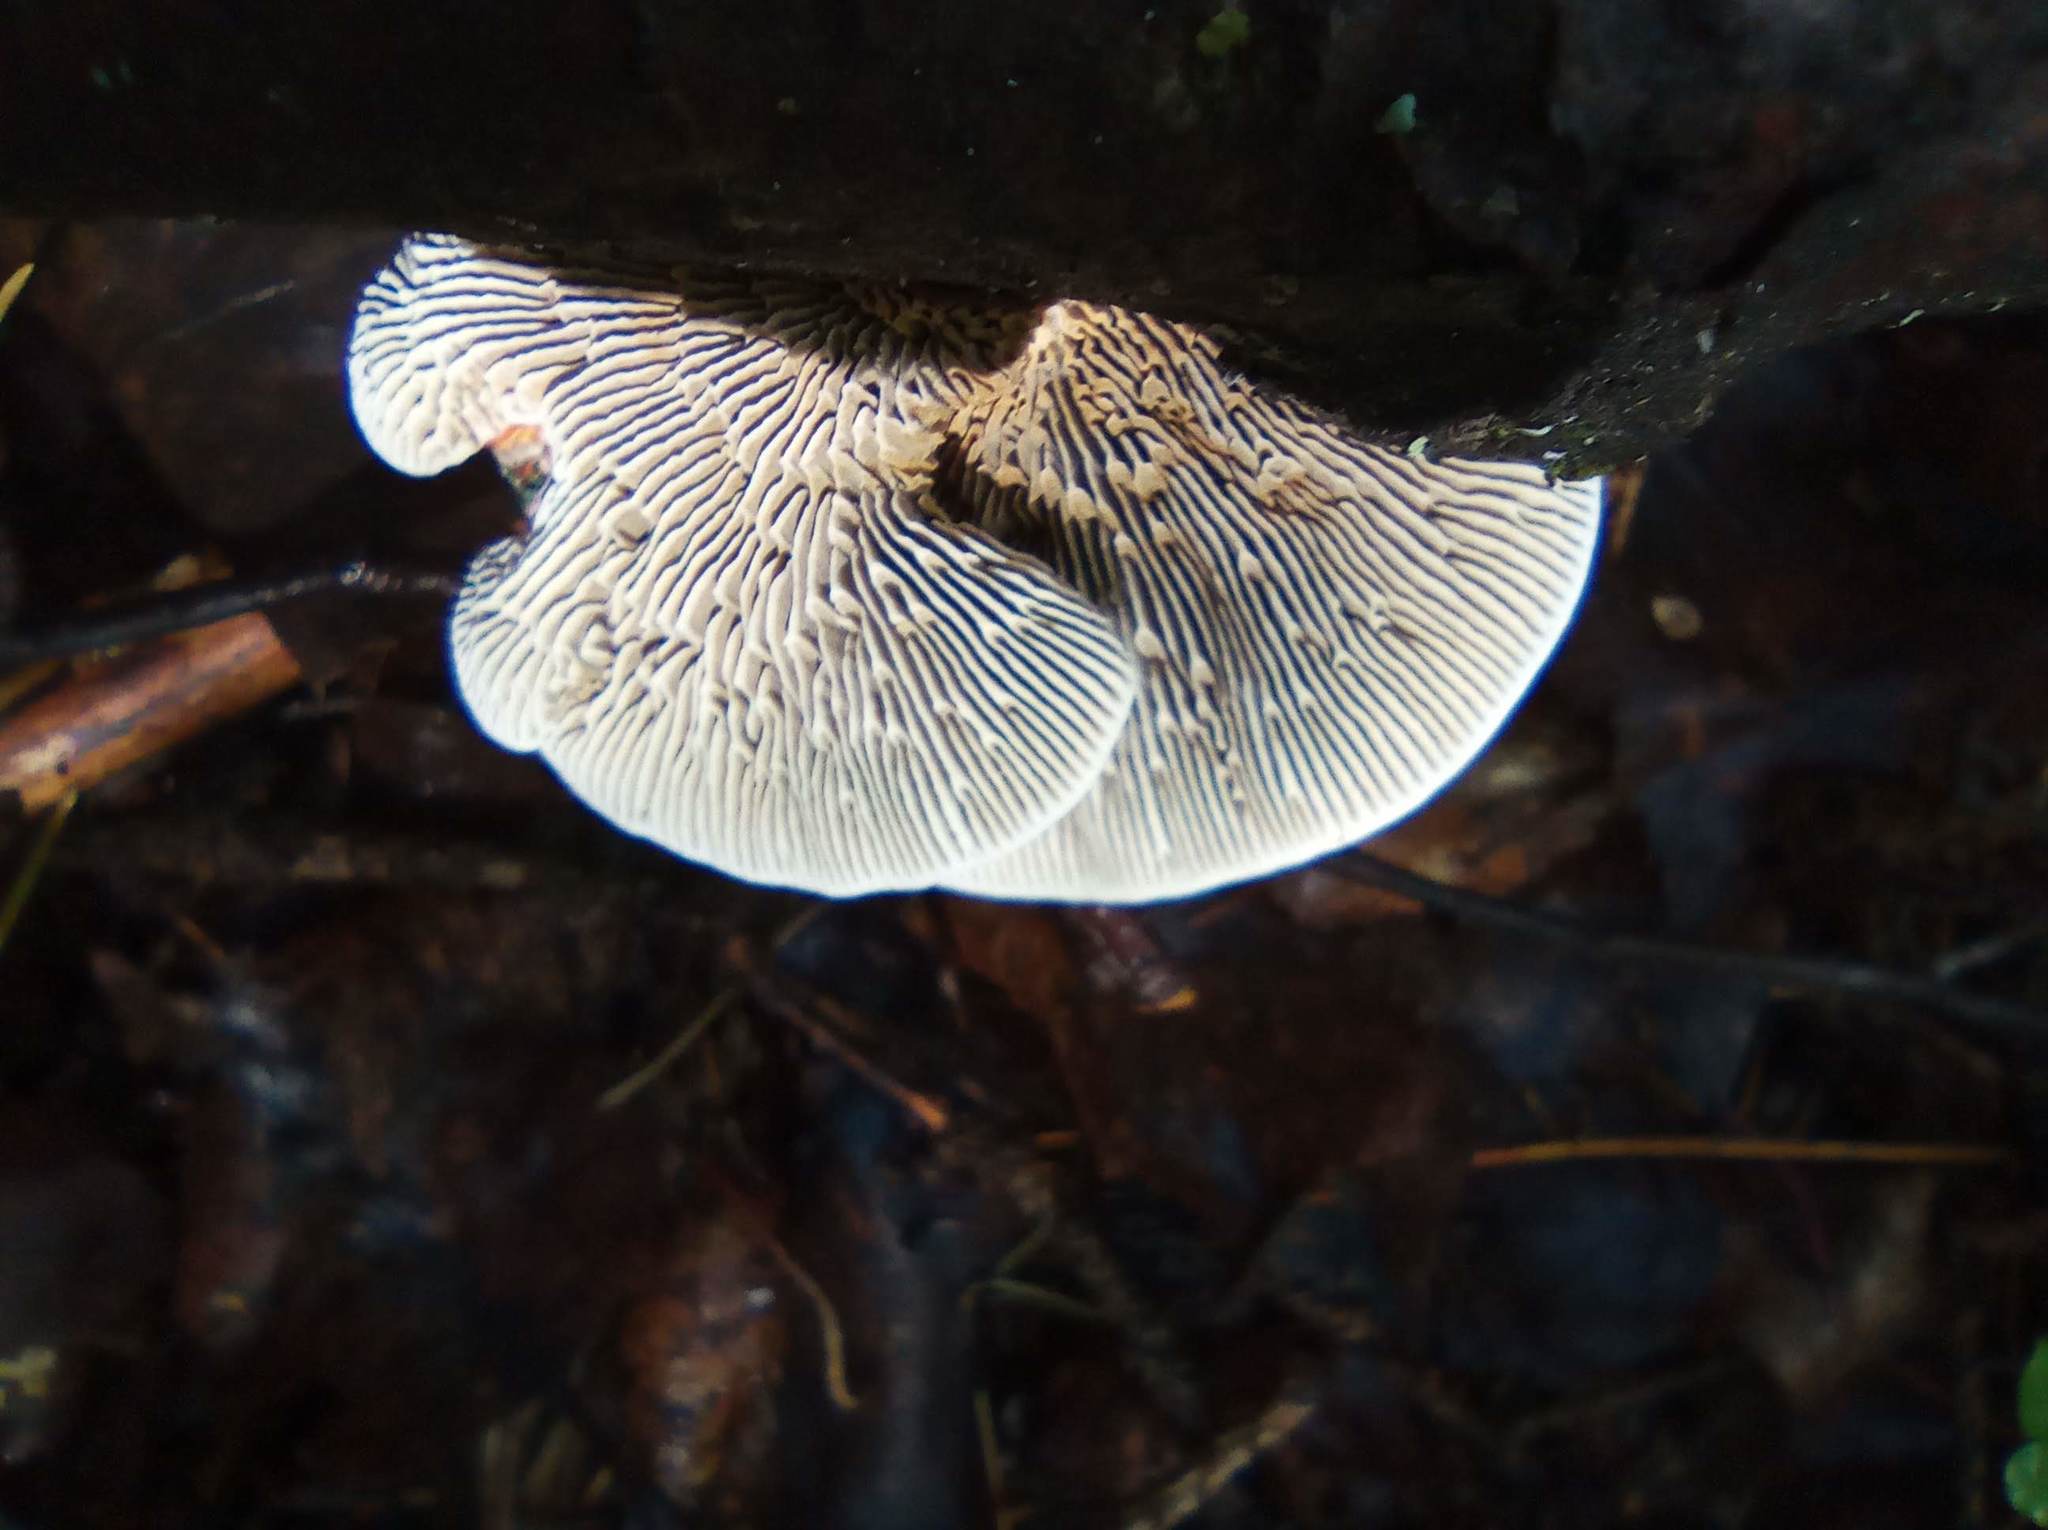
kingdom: Fungi
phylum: Basidiomycota
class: Agaricomycetes
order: Polyporales
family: Polyporaceae
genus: Daedaleopsis
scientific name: Daedaleopsis septentrionalis
